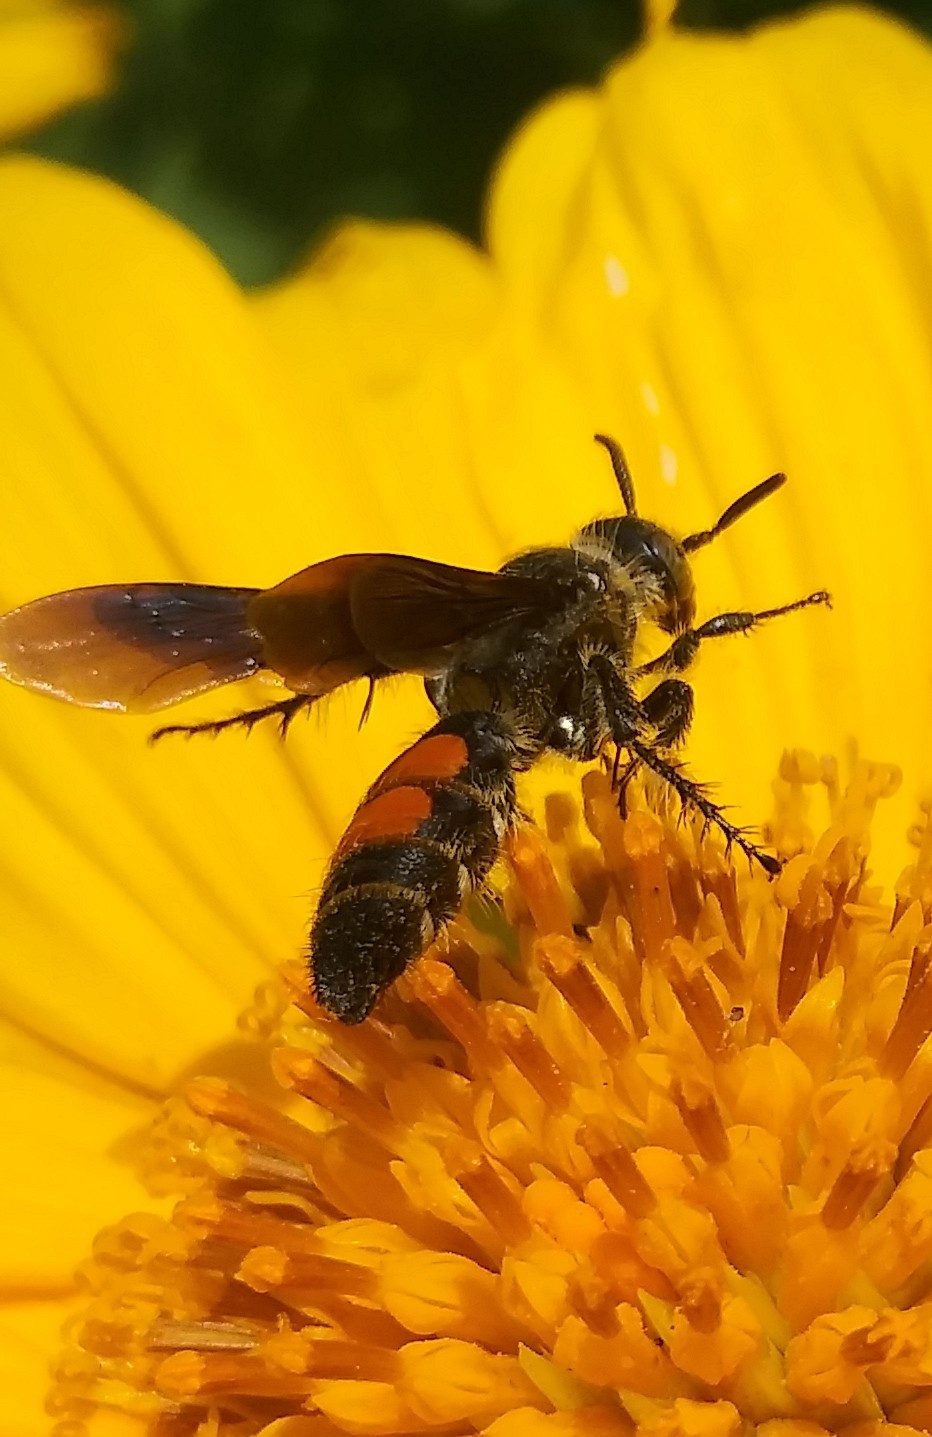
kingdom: Animalia
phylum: Arthropoda
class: Insecta
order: Hymenoptera
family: Scoliidae
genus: Dielis
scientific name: Dielis dorsata
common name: Scoliid wasp
